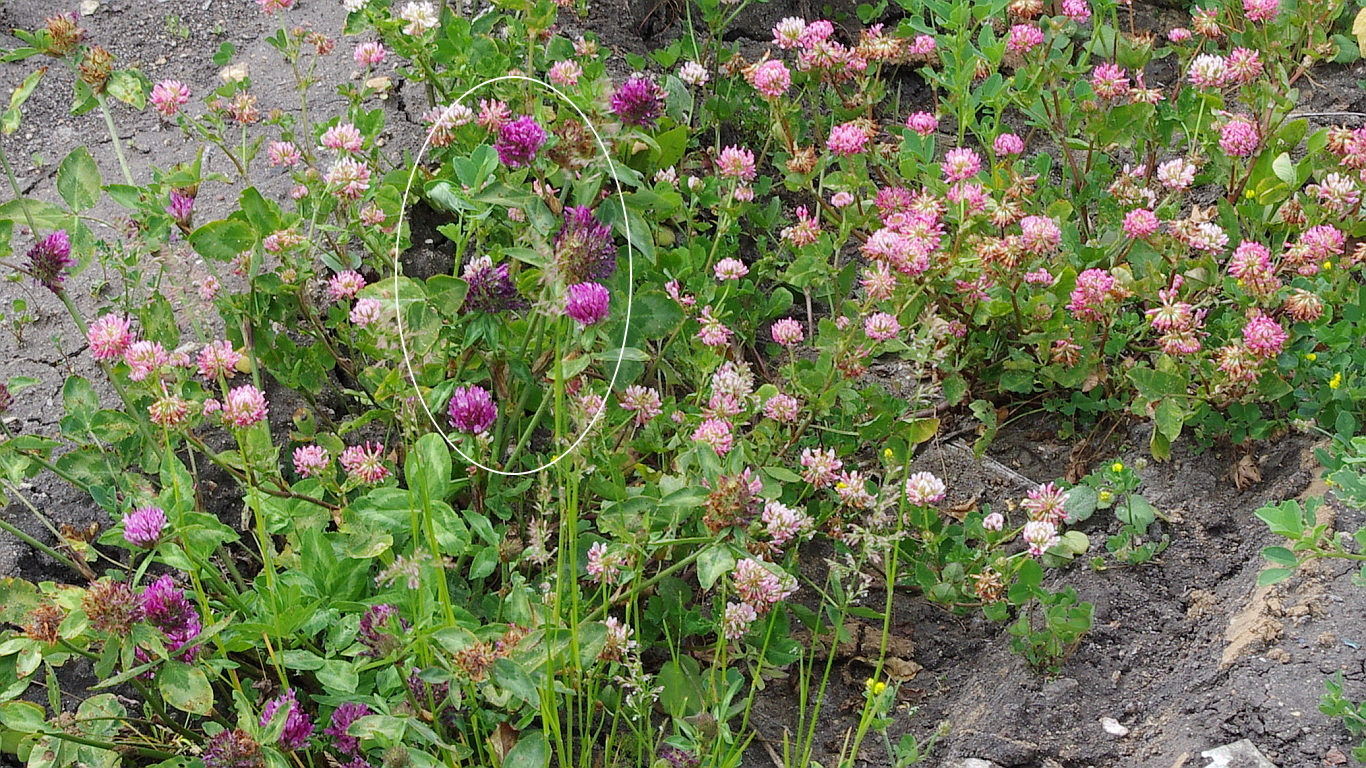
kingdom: Plantae
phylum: Tracheophyta
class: Magnoliopsida
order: Fabales
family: Fabaceae
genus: Trifolium
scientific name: Trifolium pratense
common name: Red clover
